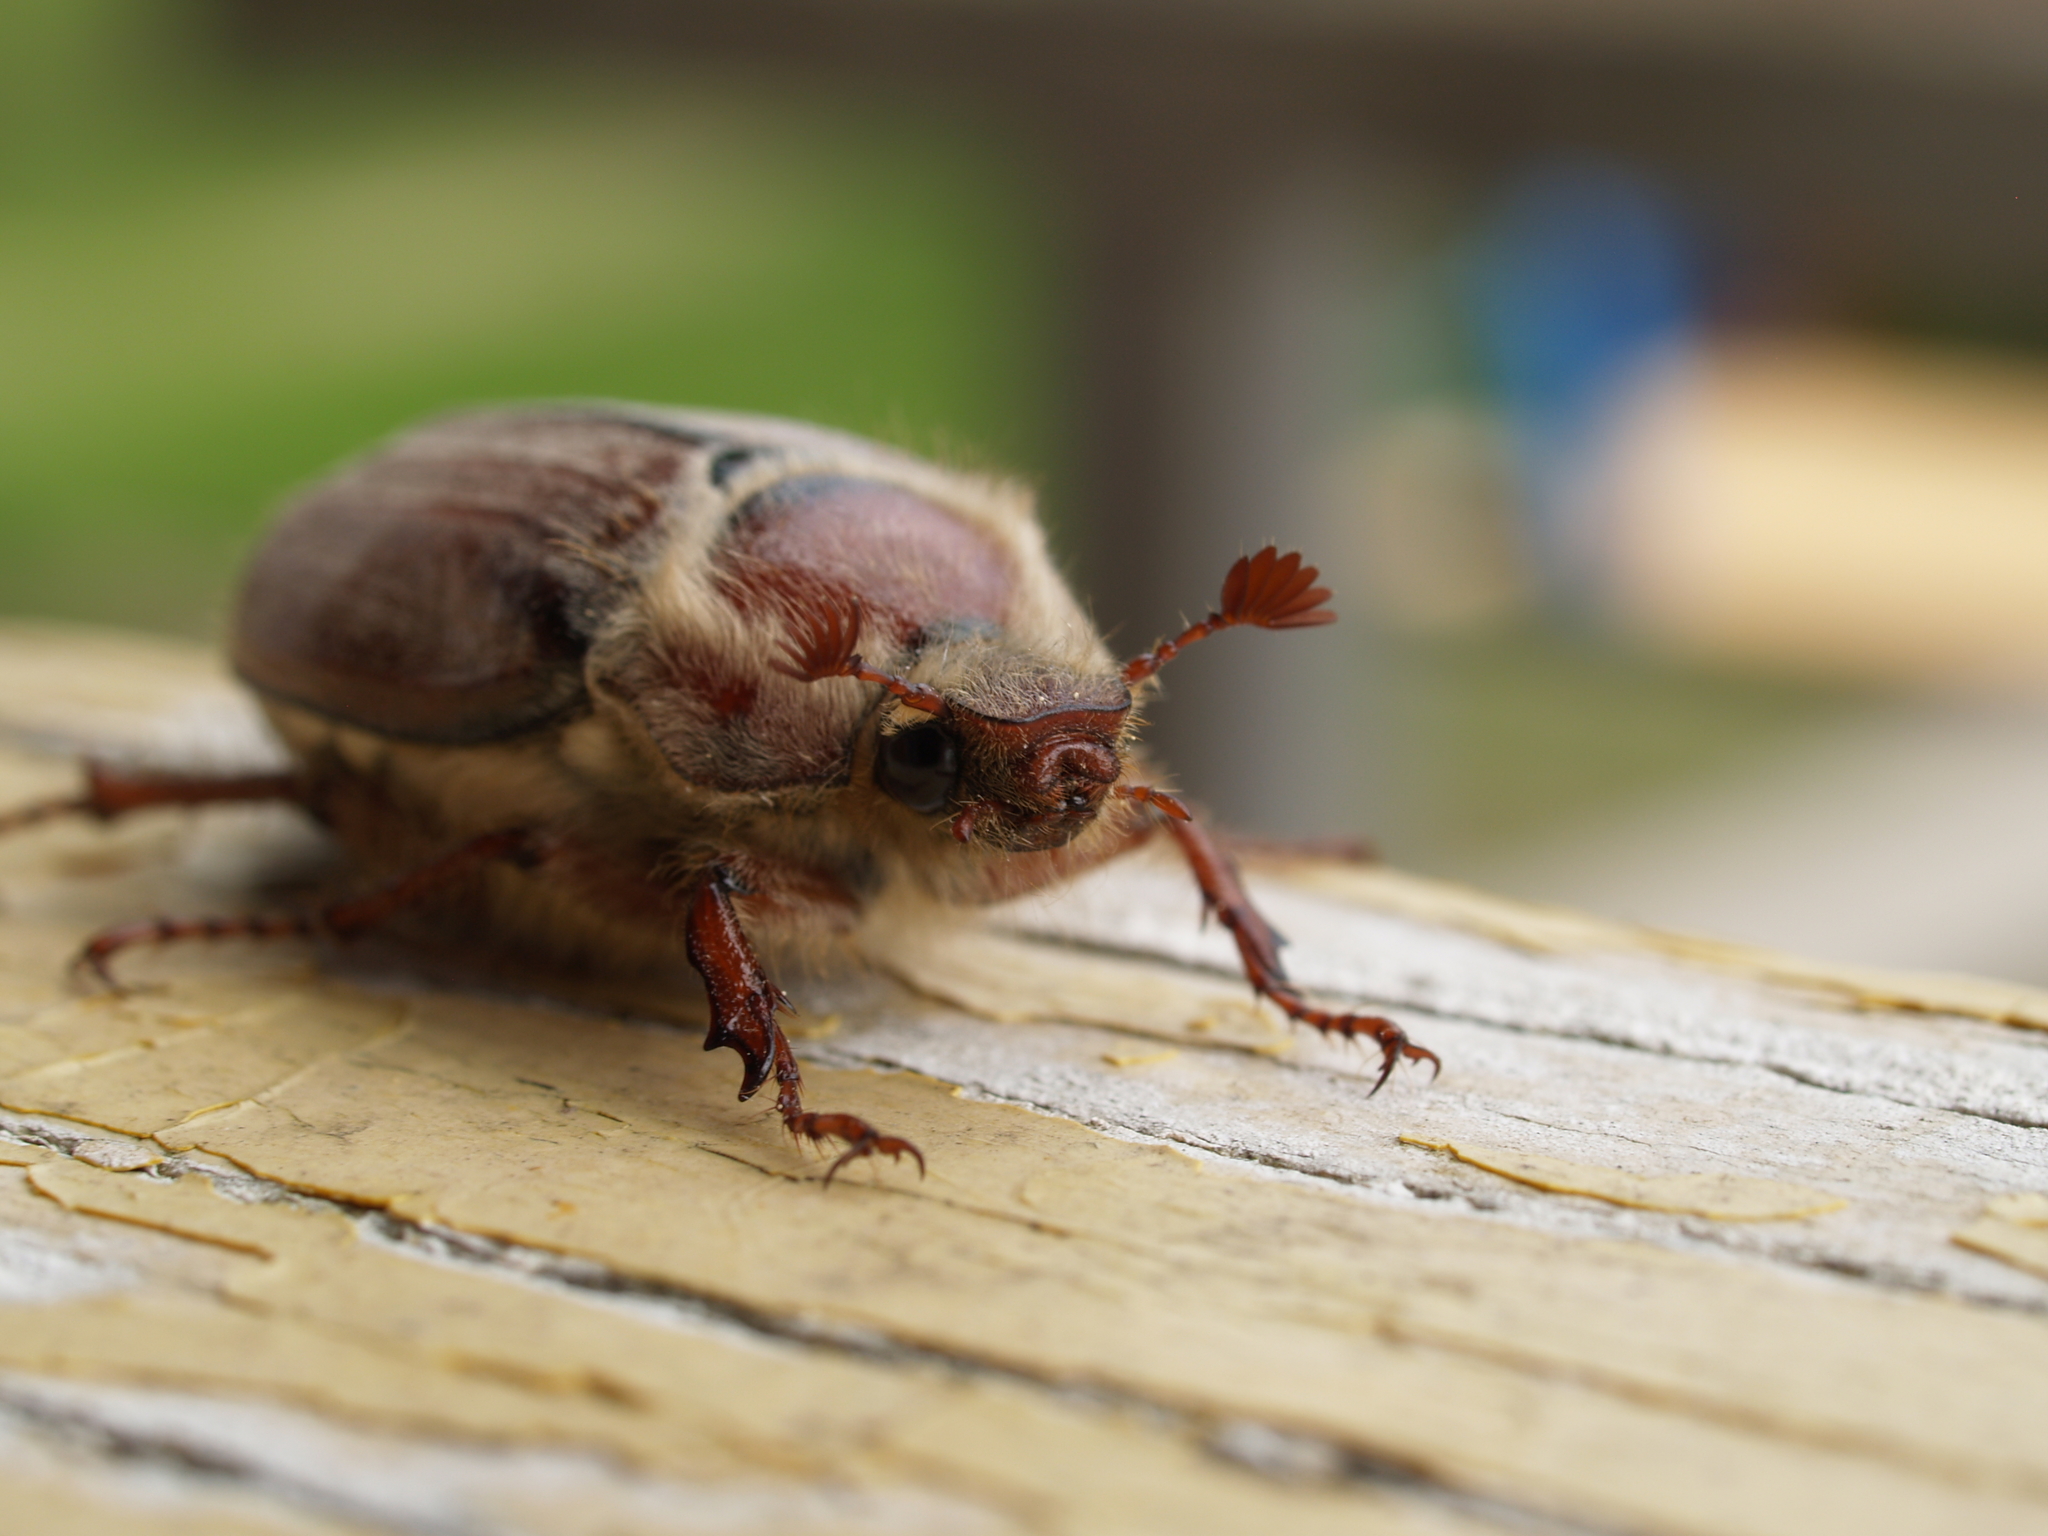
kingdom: Animalia
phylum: Arthropoda
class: Insecta
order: Coleoptera
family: Scarabaeidae
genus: Melolontha
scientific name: Melolontha hippocastani
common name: Chestnut cockchafer
